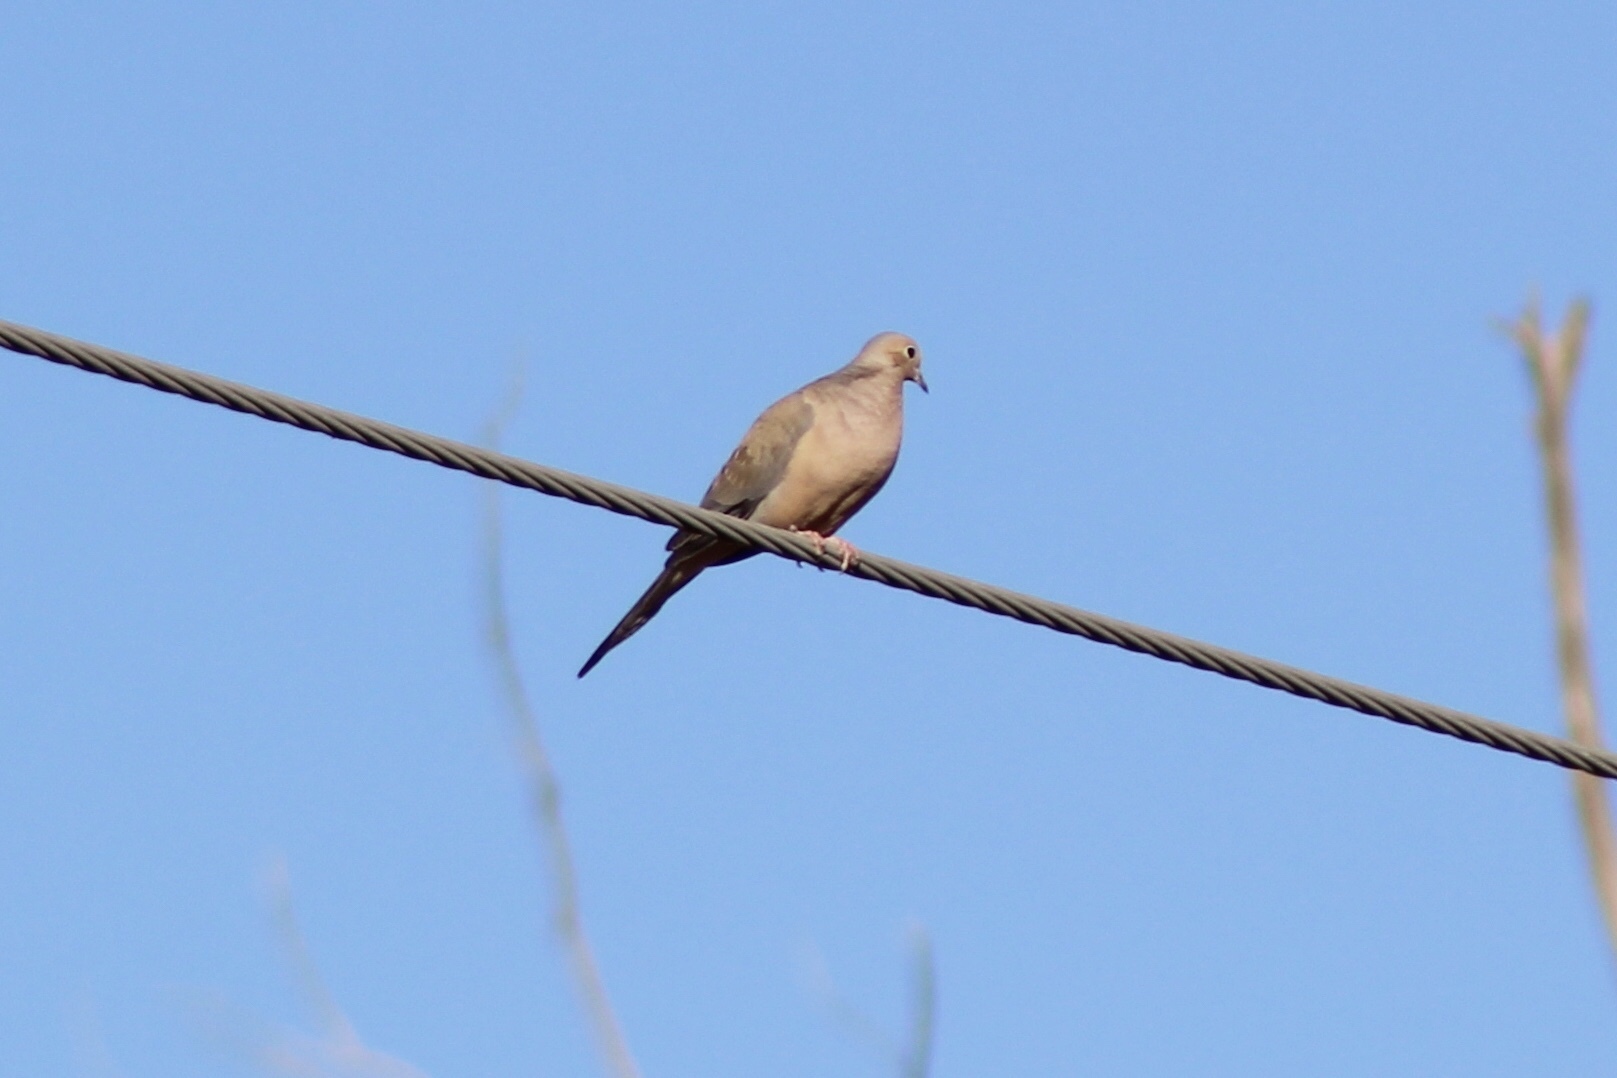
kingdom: Animalia
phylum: Chordata
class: Aves
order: Columbiformes
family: Columbidae
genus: Zenaida
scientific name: Zenaida macroura
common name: Mourning dove
